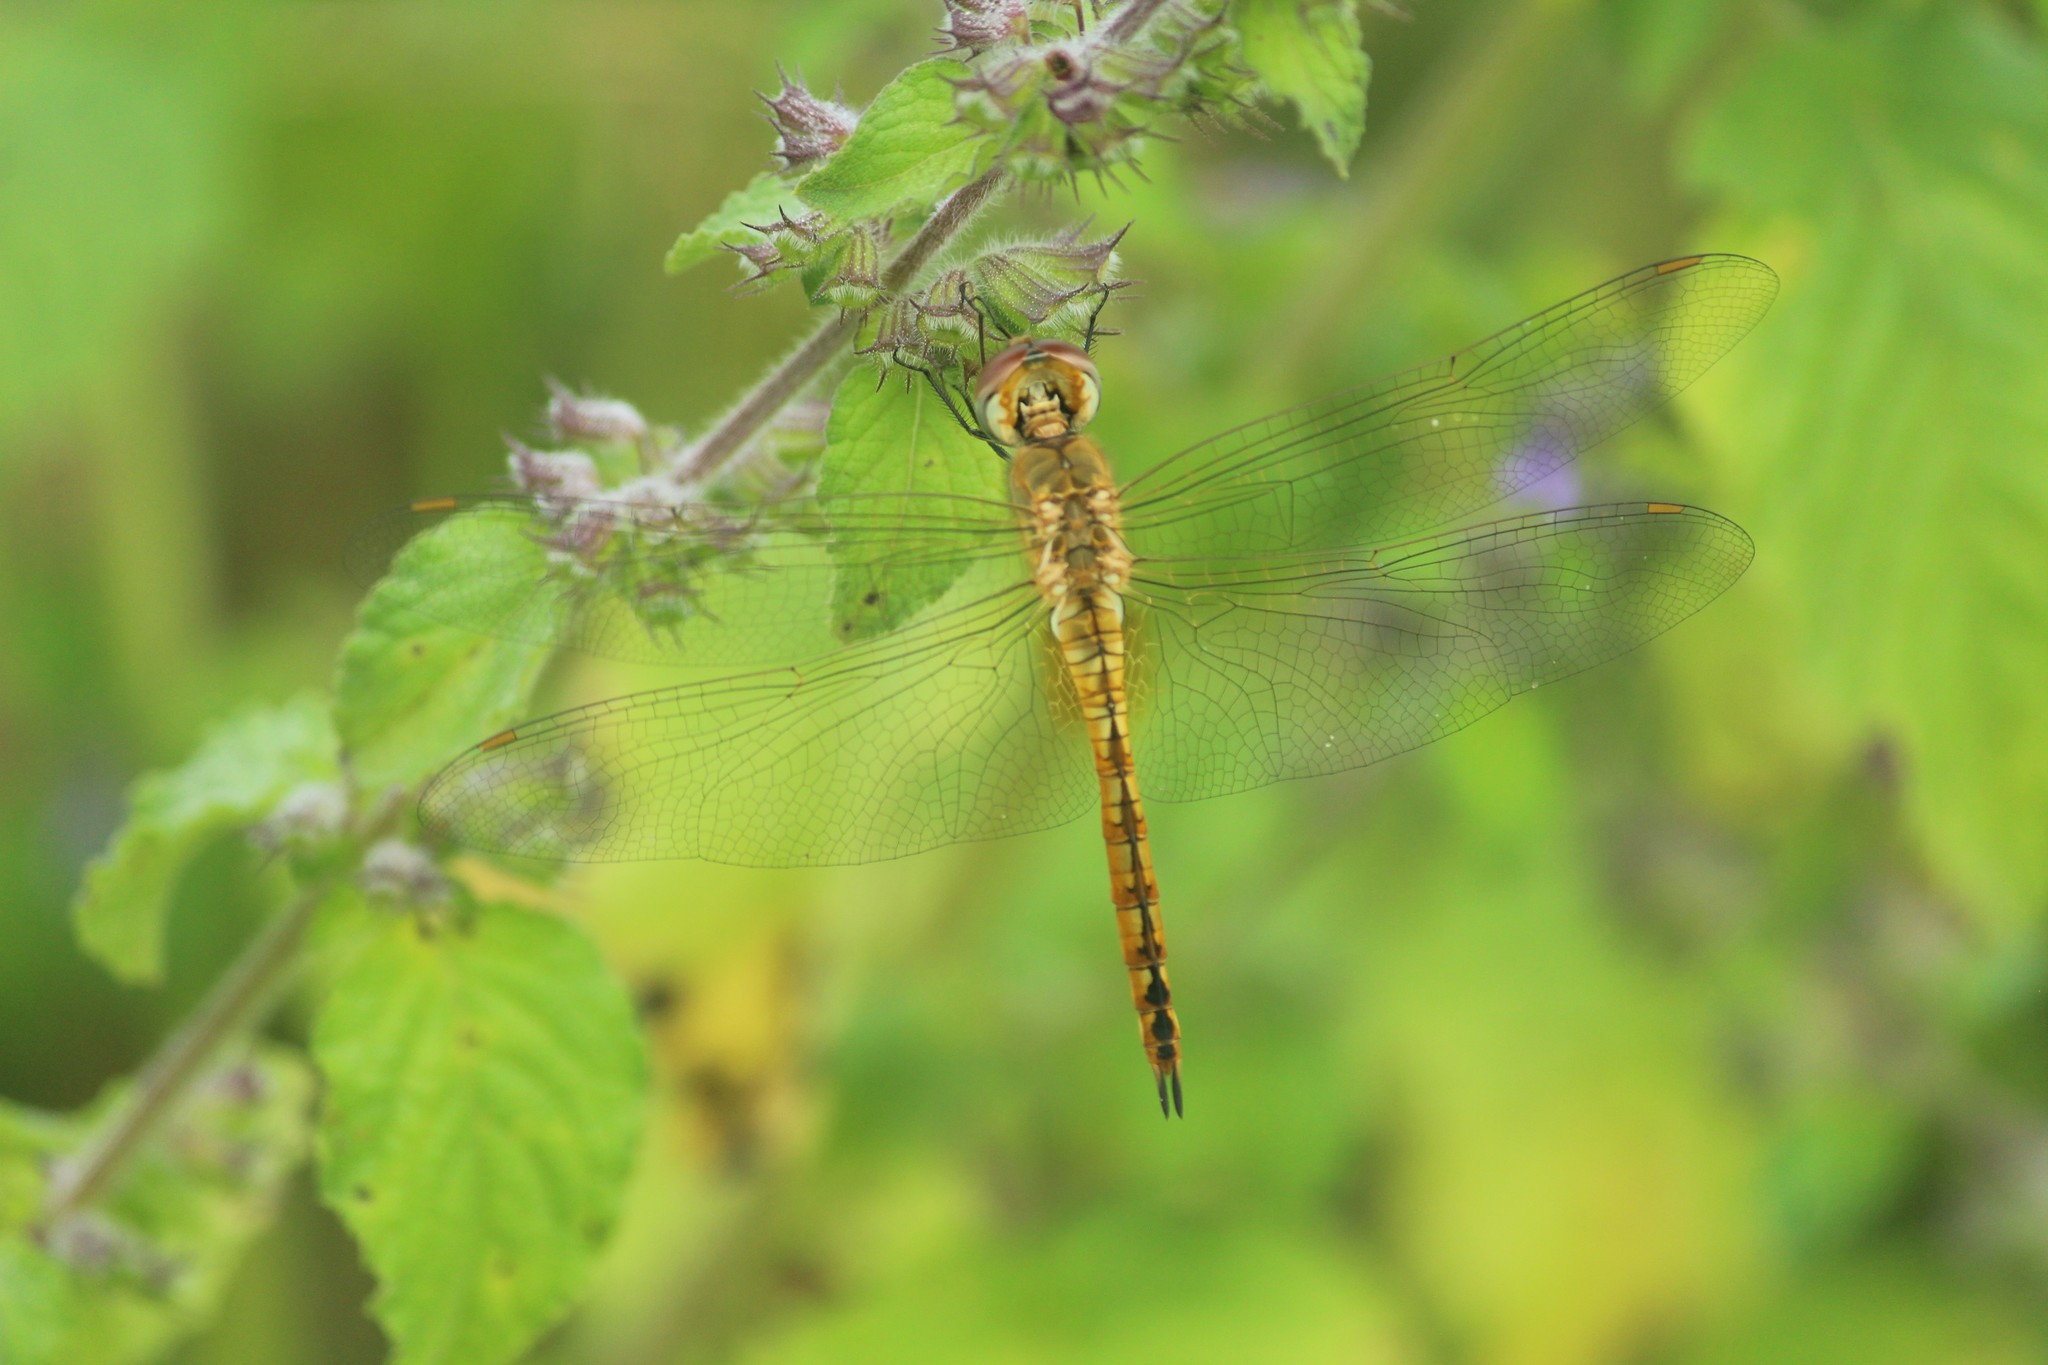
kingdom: Animalia
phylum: Arthropoda
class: Insecta
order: Odonata
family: Libellulidae
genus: Pantala
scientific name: Pantala flavescens
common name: Wandering glider
